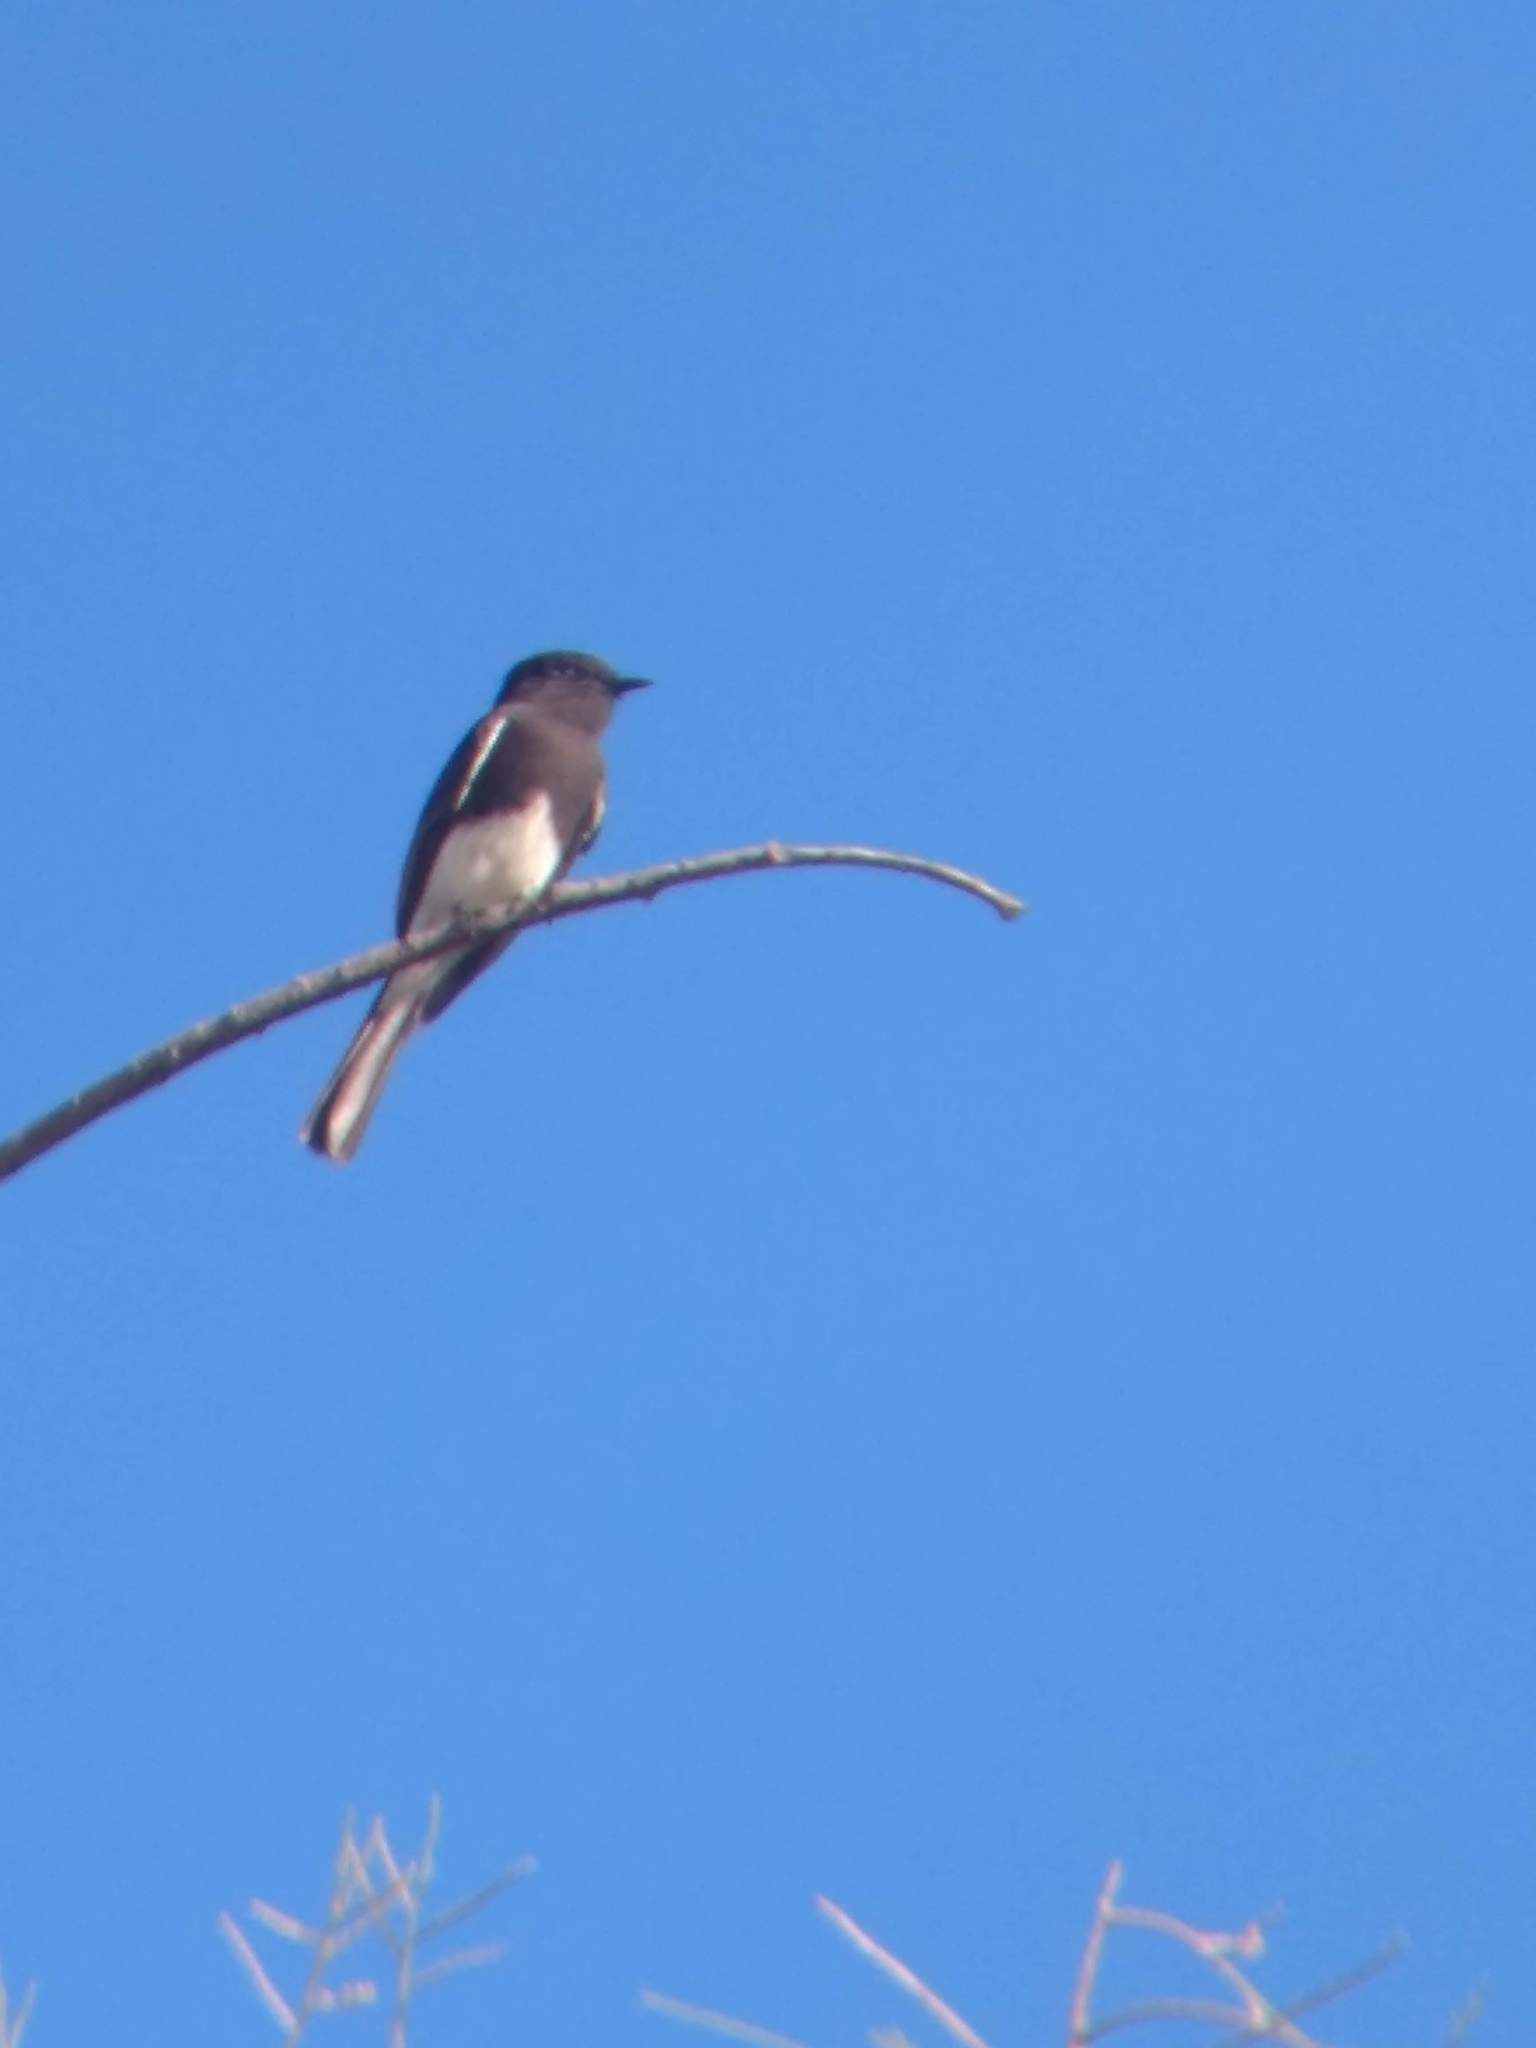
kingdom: Animalia
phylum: Chordata
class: Aves
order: Passeriformes
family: Tyrannidae
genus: Sayornis
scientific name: Sayornis nigricans
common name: Black phoebe
